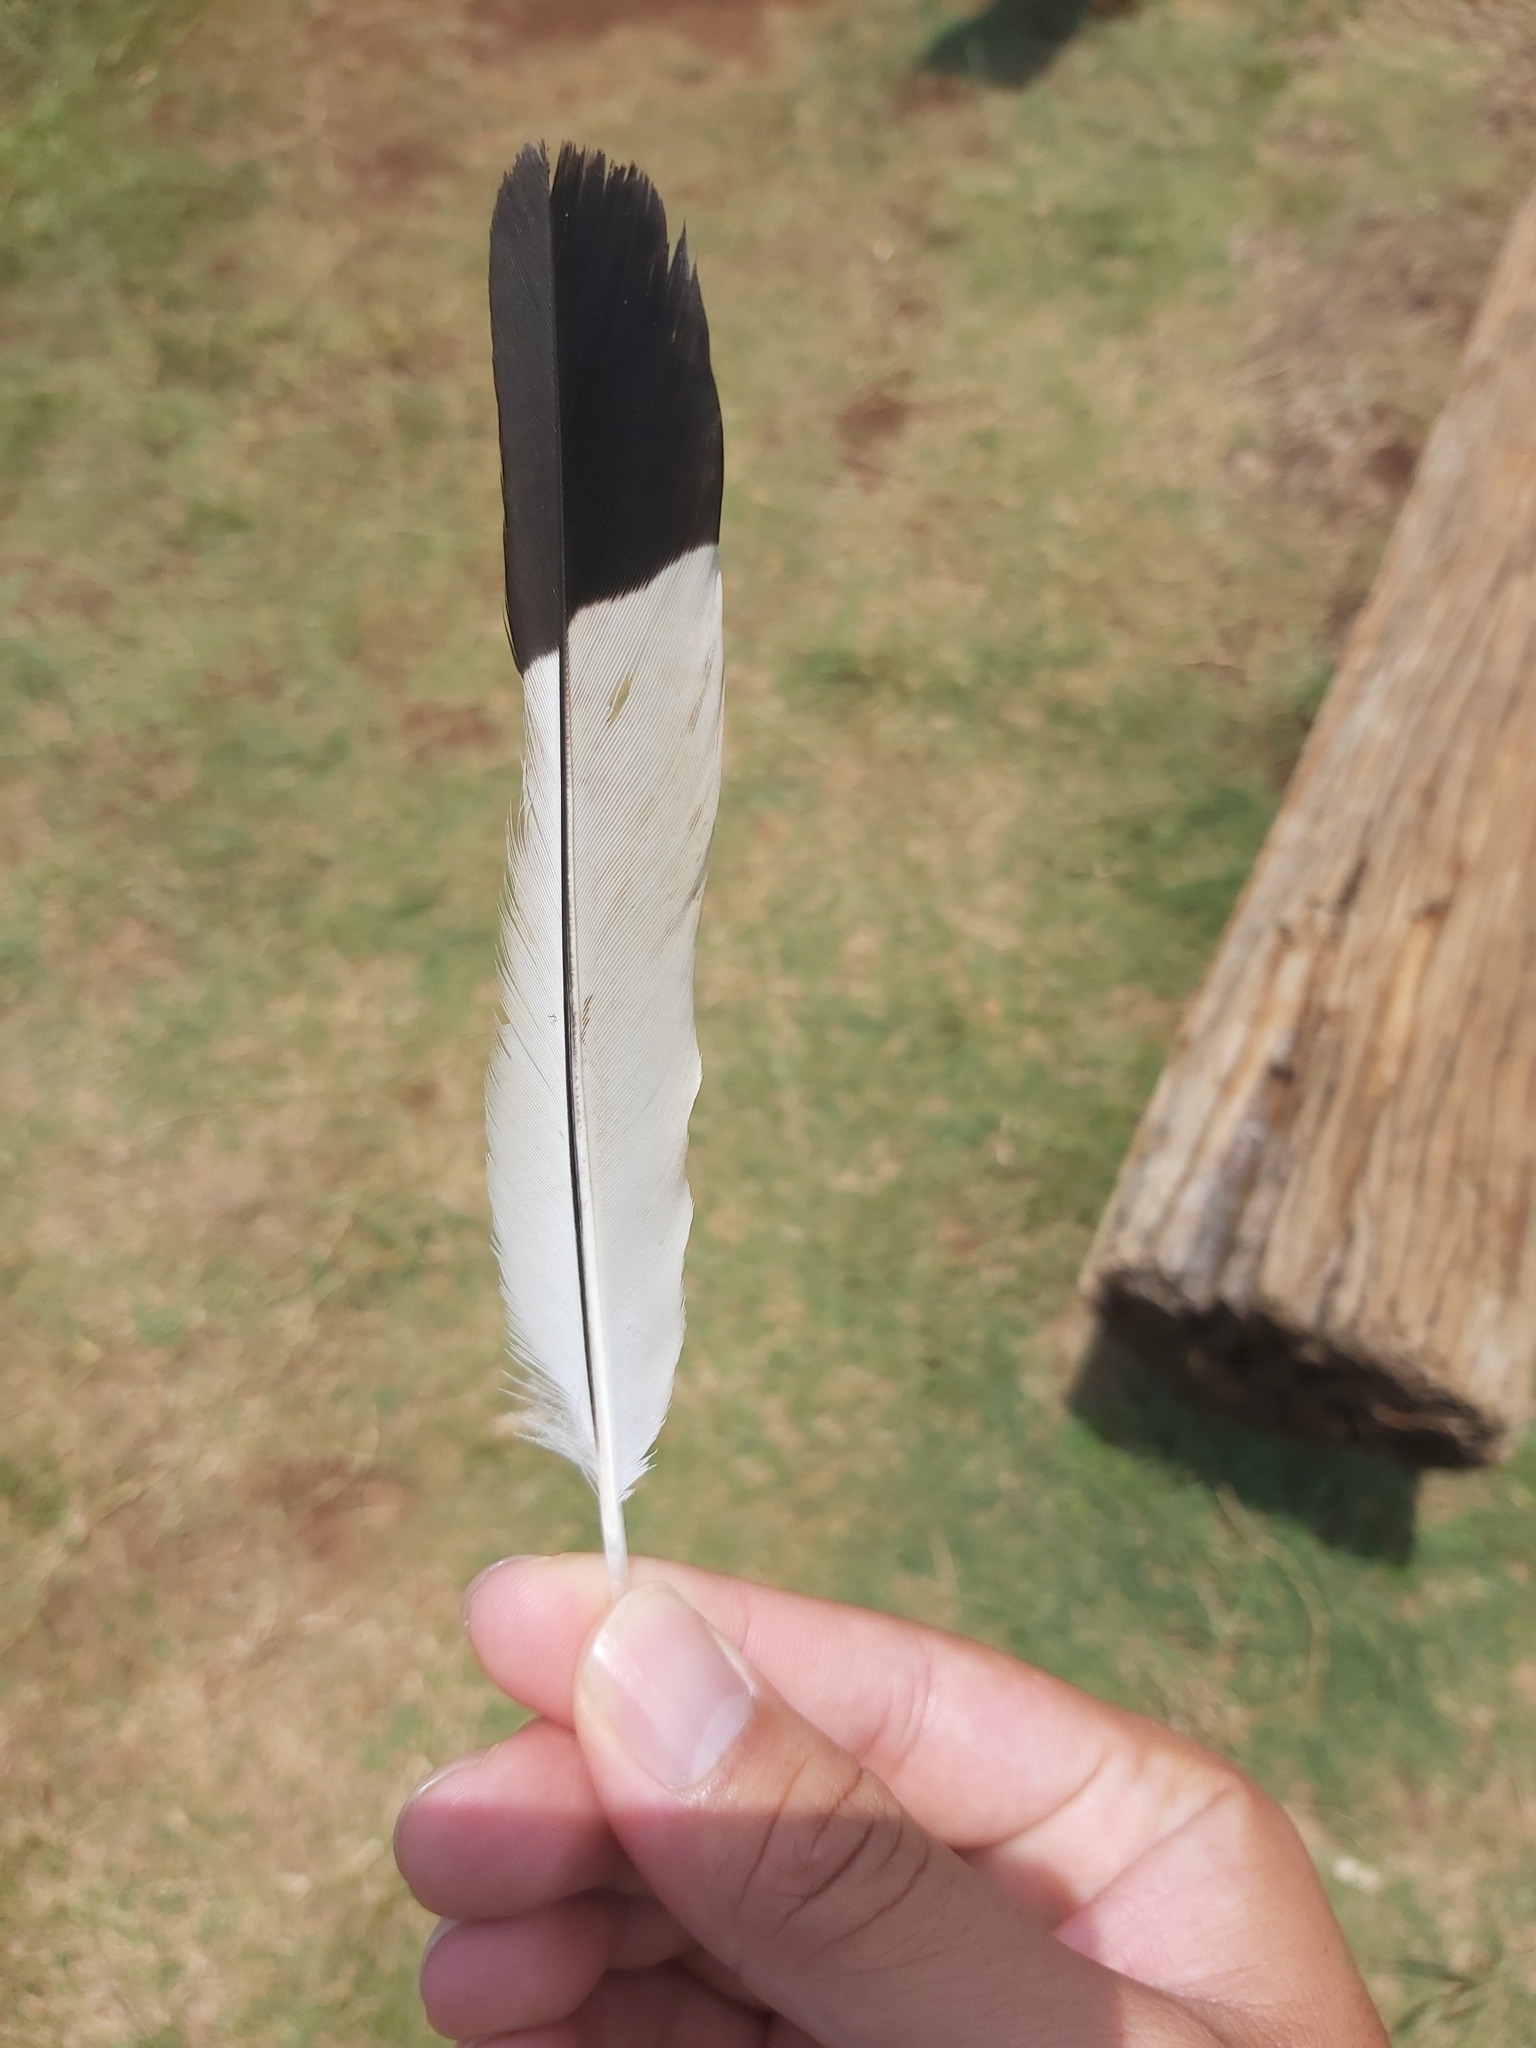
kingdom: Animalia
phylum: Chordata
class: Aves
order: Passeriformes
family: Cracticidae
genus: Gymnorhina
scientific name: Gymnorhina tibicen
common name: Australian magpie
